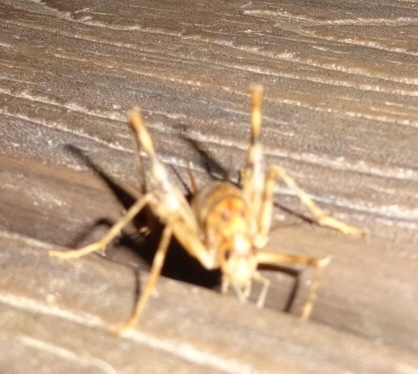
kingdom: Animalia
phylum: Arthropoda
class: Insecta
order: Orthoptera
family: Rhaphidophoridae
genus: Tachycines
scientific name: Tachycines asynamorus
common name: Greenhouse camel cricket
